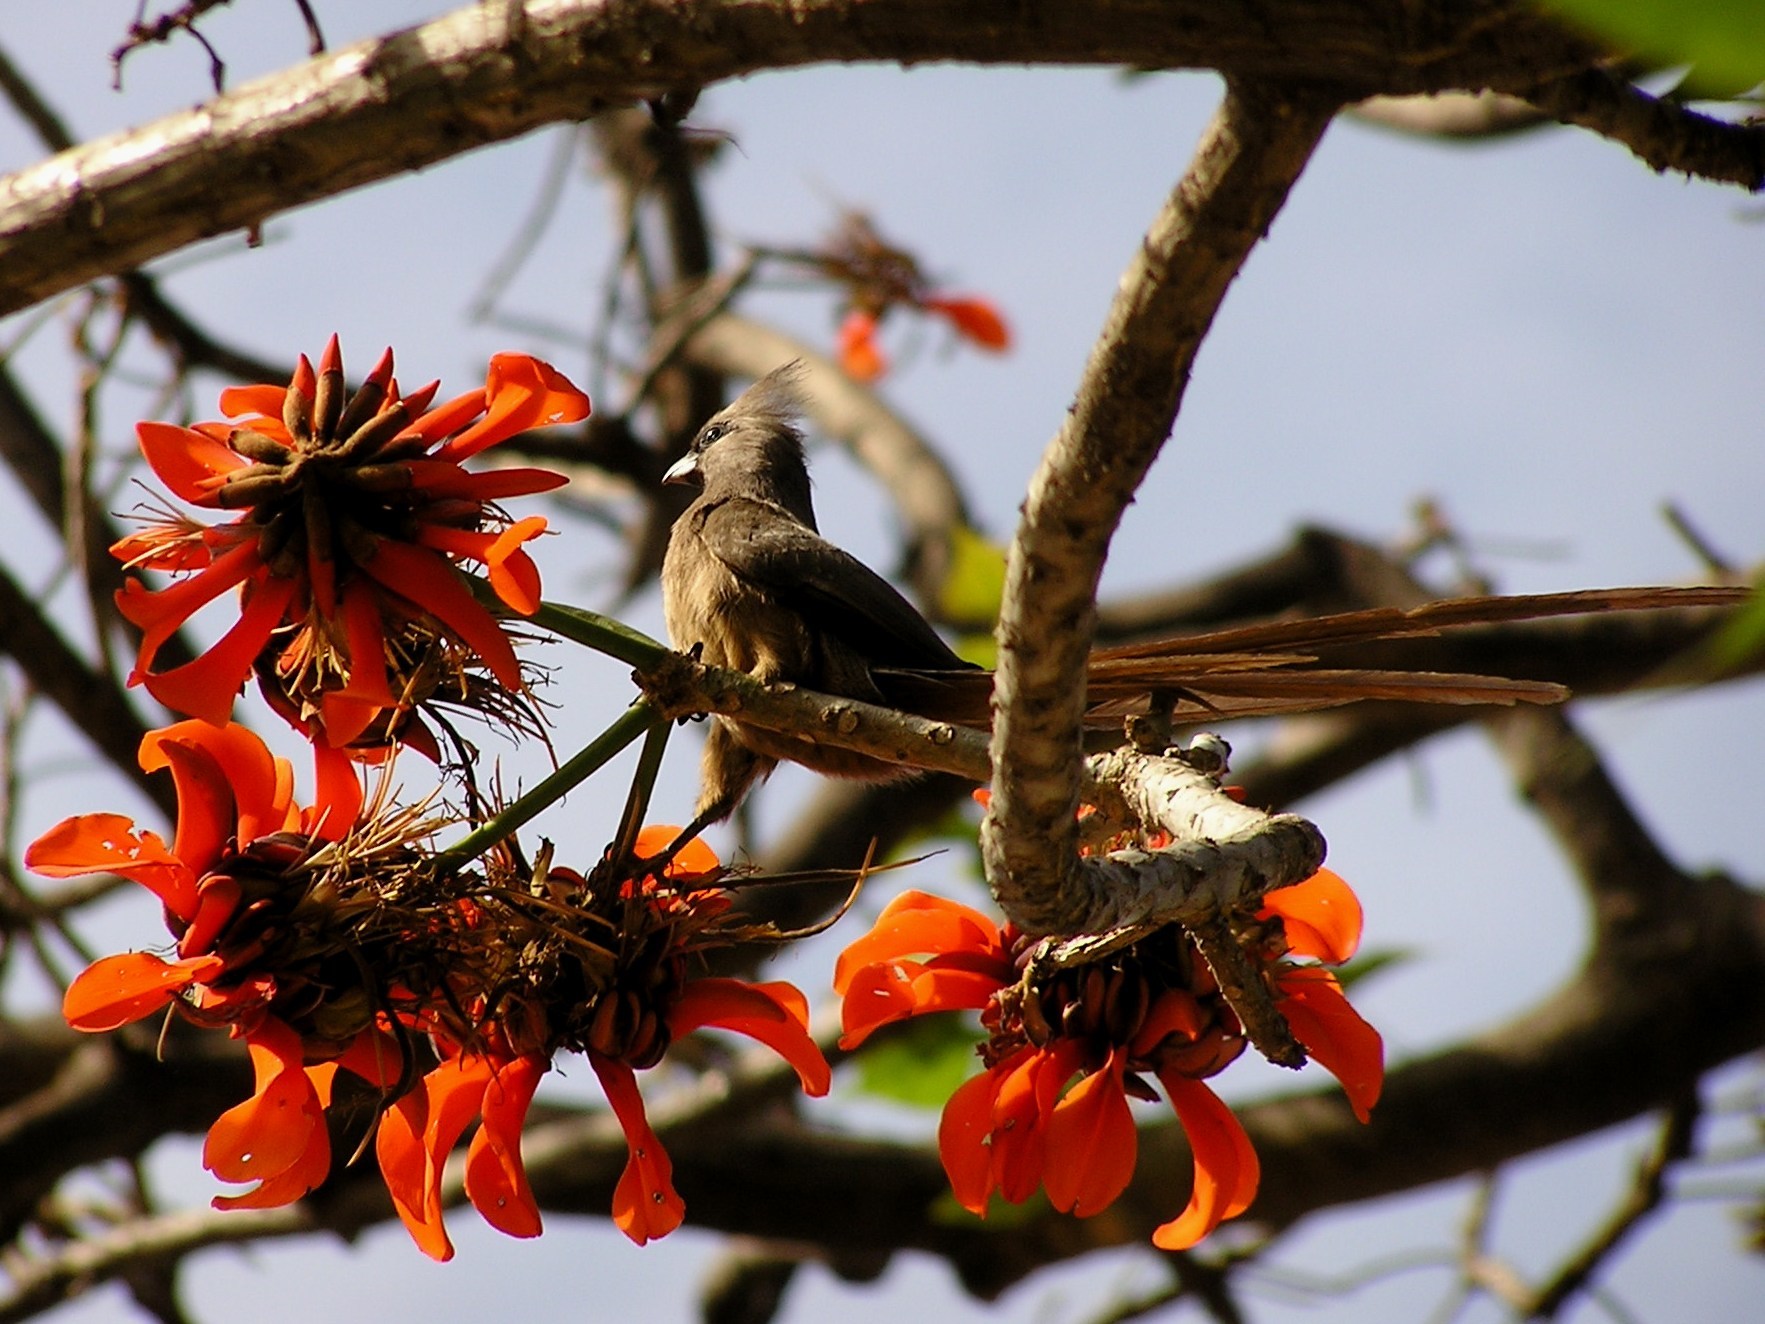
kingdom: Animalia
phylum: Chordata
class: Aves
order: Coliiformes
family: Coliidae
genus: Colius
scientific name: Colius striatus
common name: Speckled mousebird
